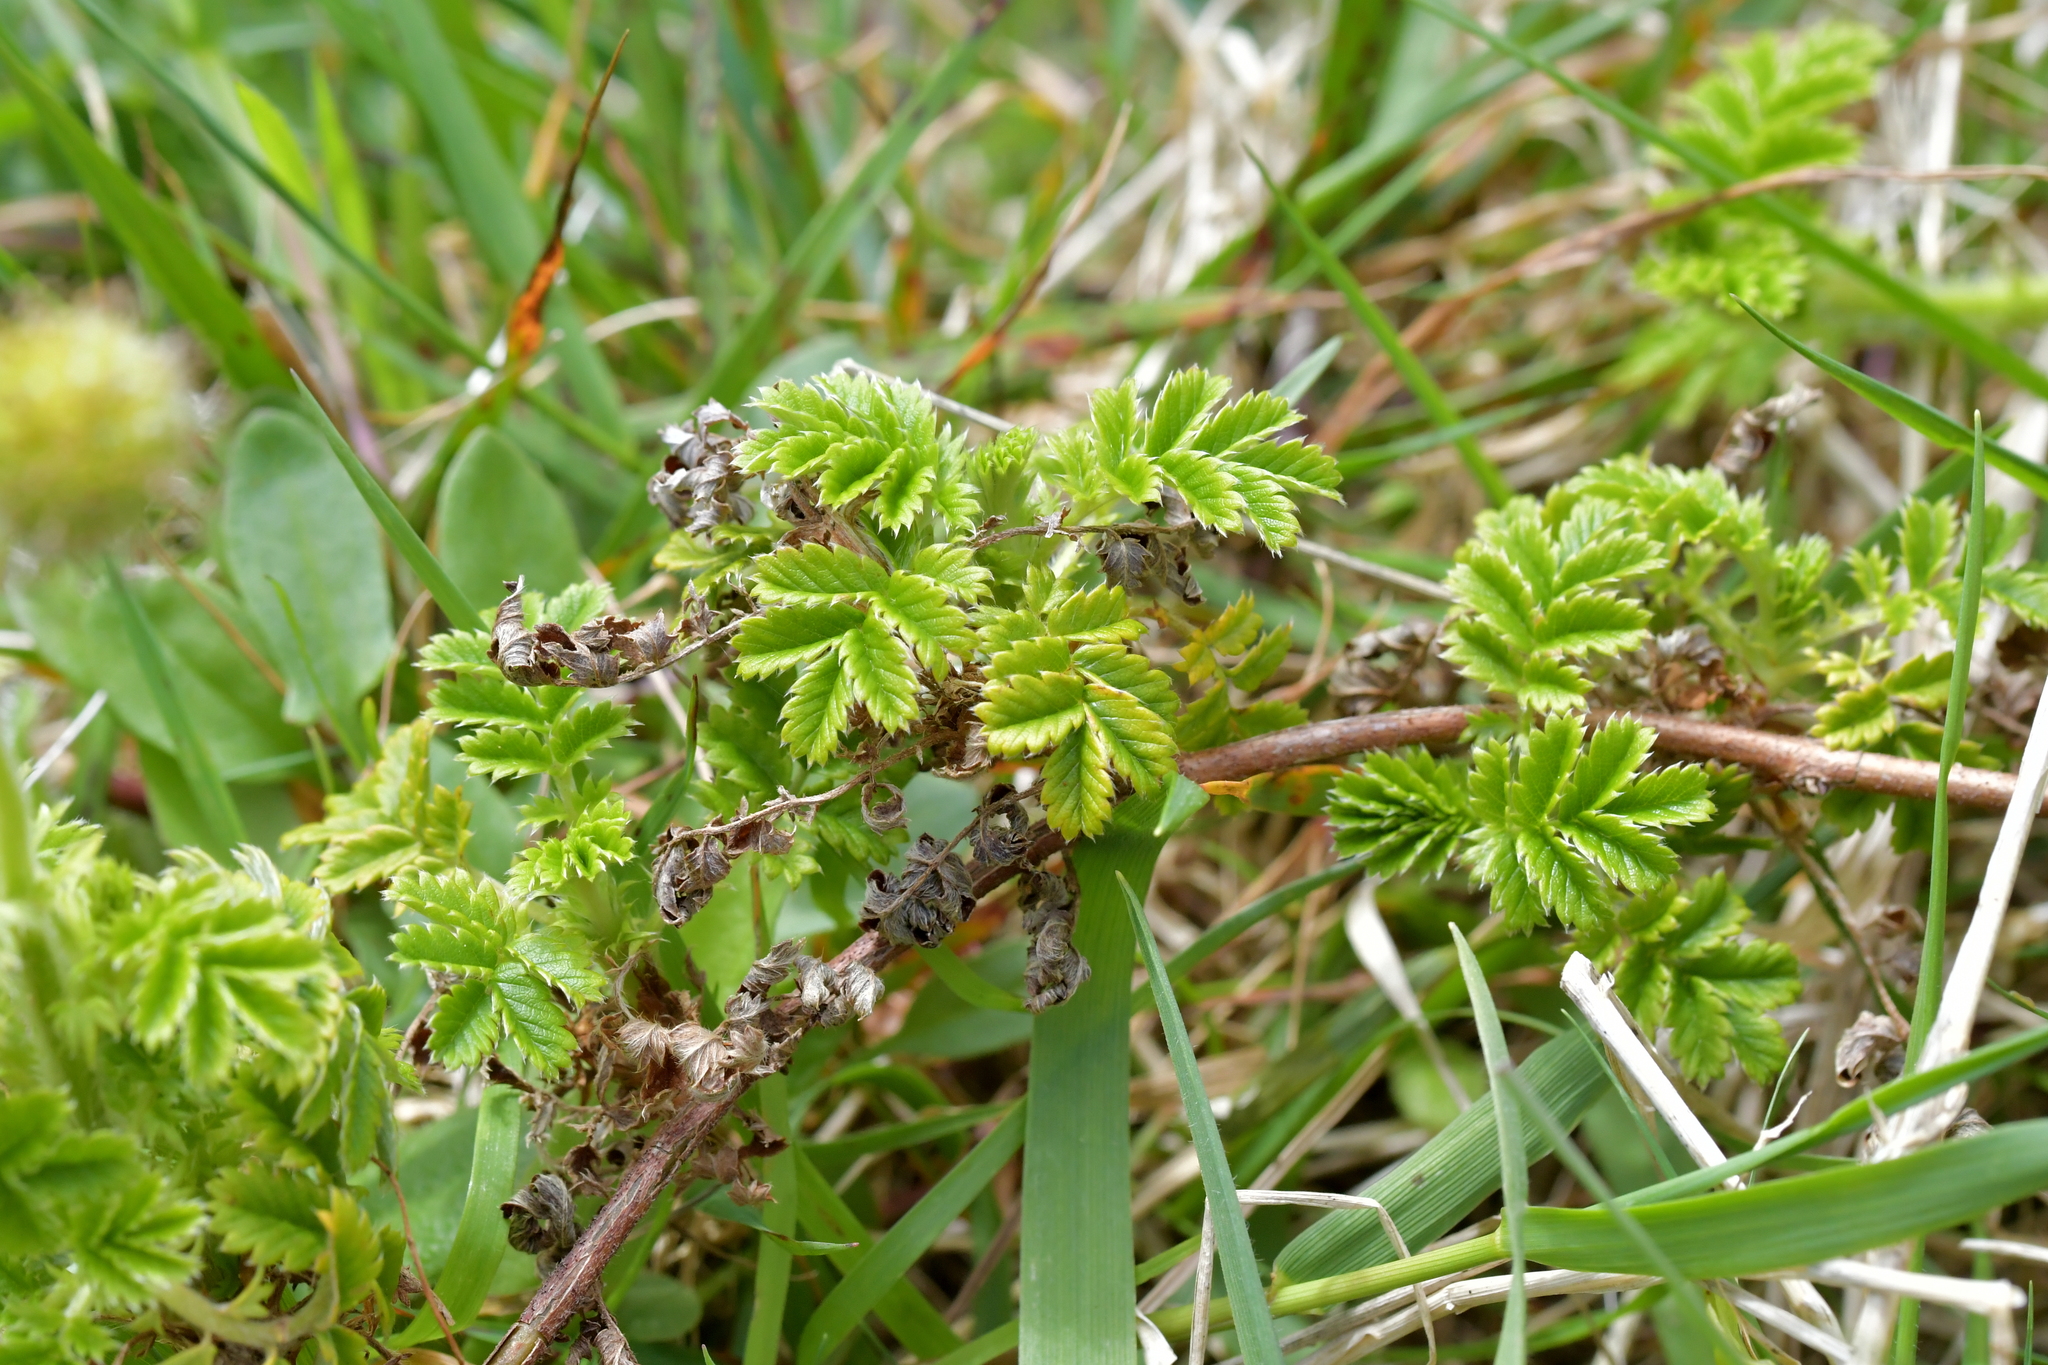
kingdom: Plantae
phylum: Tracheophyta
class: Magnoliopsida
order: Rosales
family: Rosaceae
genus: Acaena
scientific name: Acaena novae-zelandiae
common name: Pirri-pirri-bur
